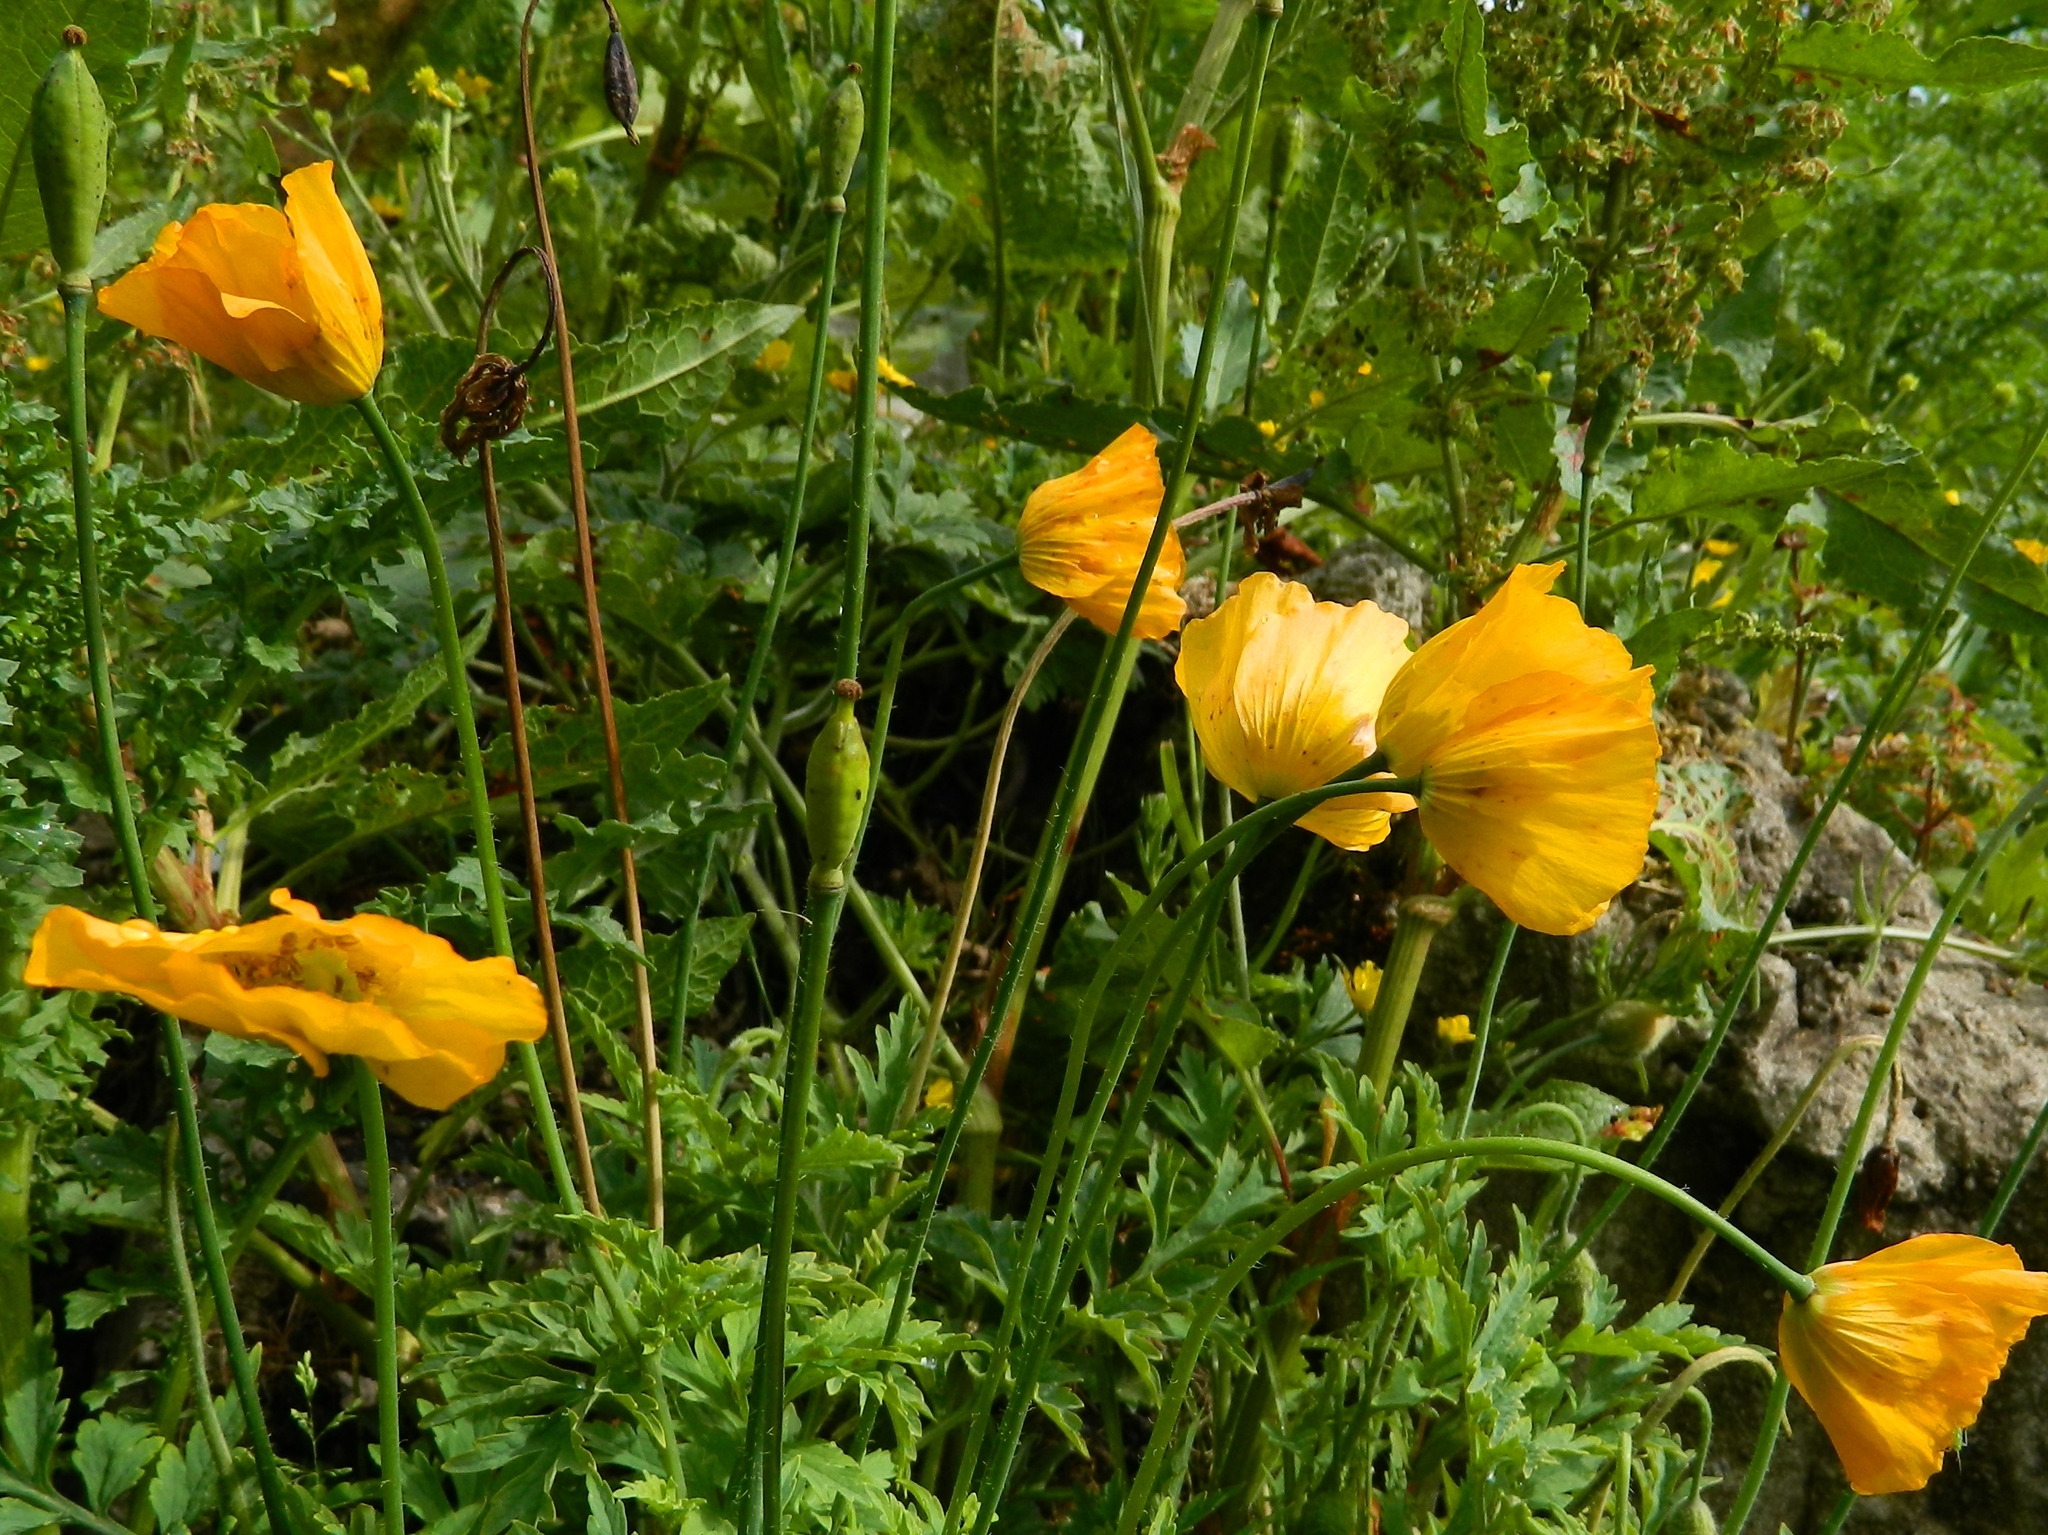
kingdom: Plantae
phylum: Tracheophyta
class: Magnoliopsida
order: Ranunculales
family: Papaveraceae
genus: Papaver
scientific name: Papaver cambricum
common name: Poppy
